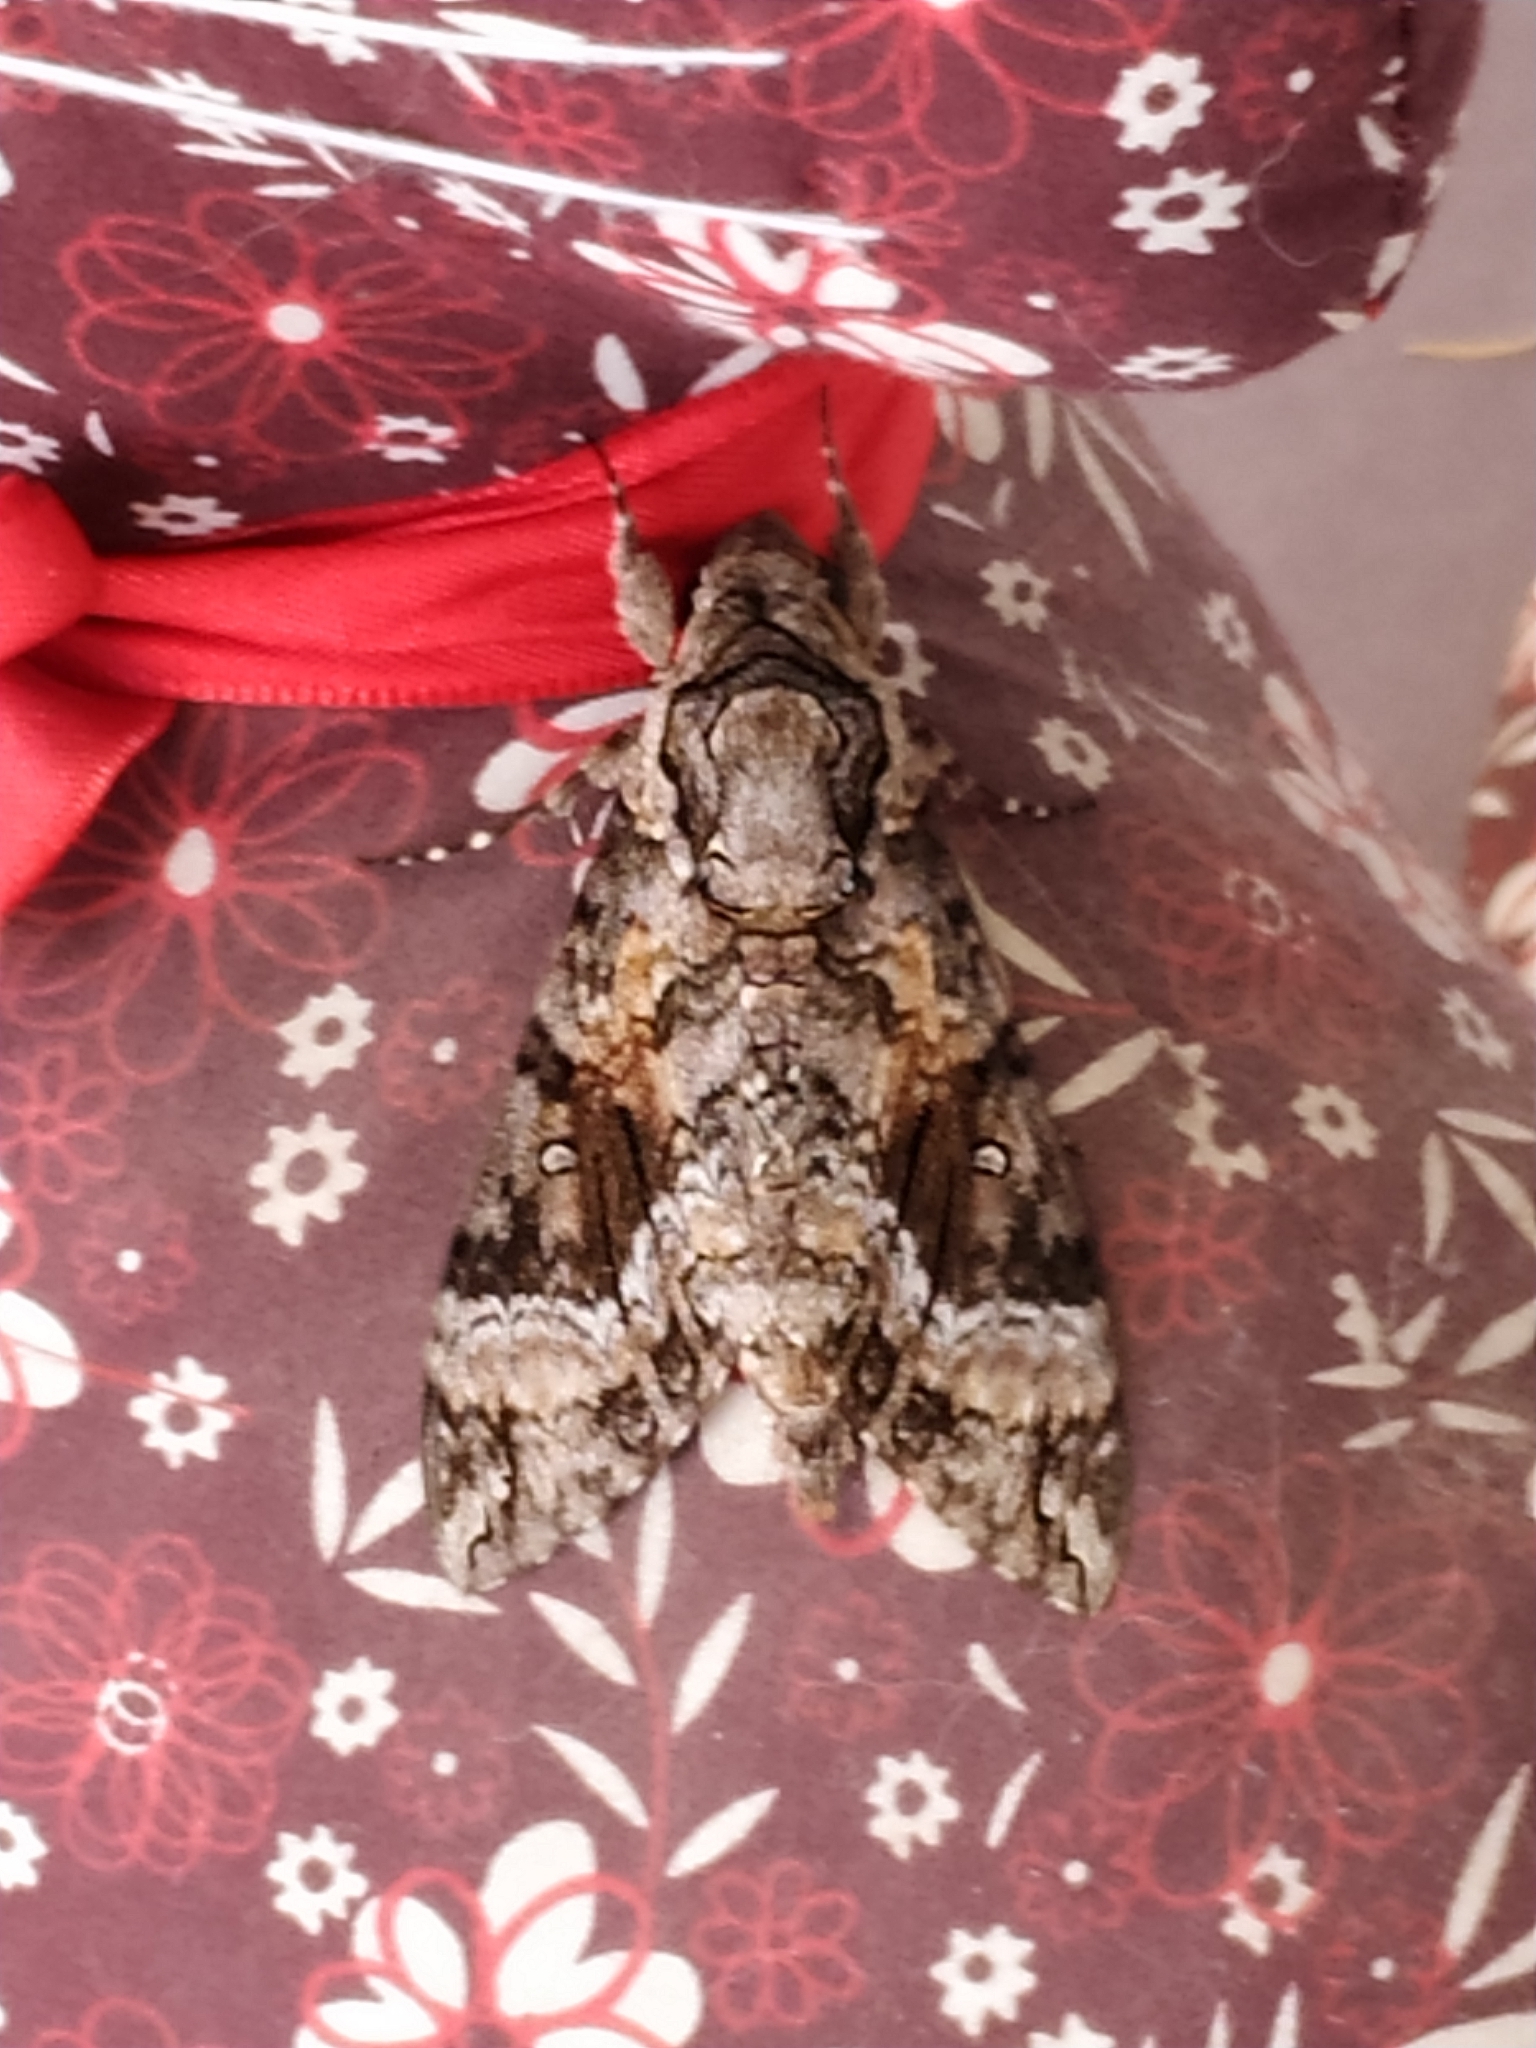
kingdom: Animalia
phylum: Arthropoda
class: Insecta
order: Lepidoptera
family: Sphingidae
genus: Agrius
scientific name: Agrius cingulata
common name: Pink-spotted hawkmoth
